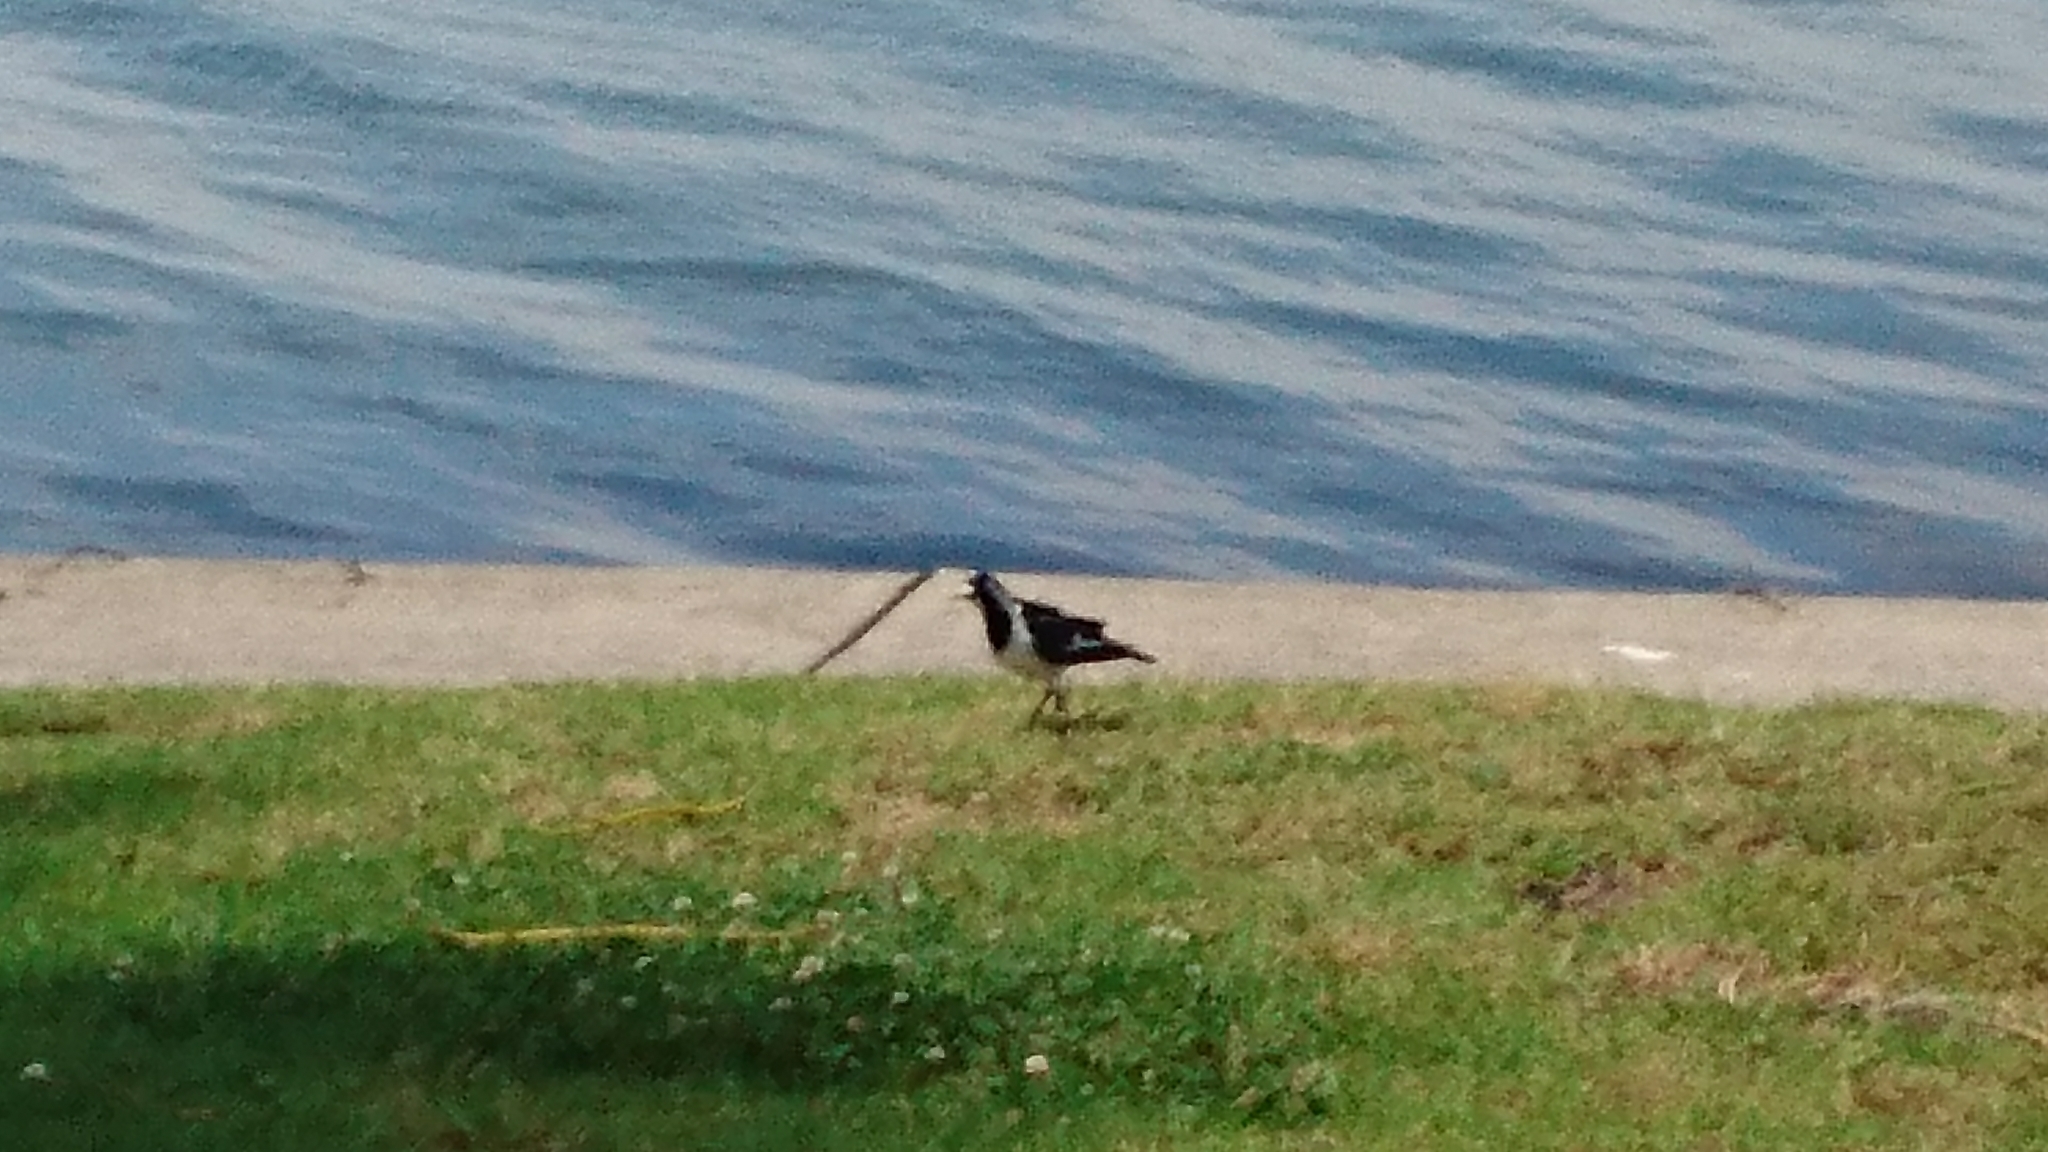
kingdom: Animalia
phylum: Chordata
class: Aves
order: Passeriformes
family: Monarchidae
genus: Grallina
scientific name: Grallina cyanoleuca
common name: Magpie-lark
